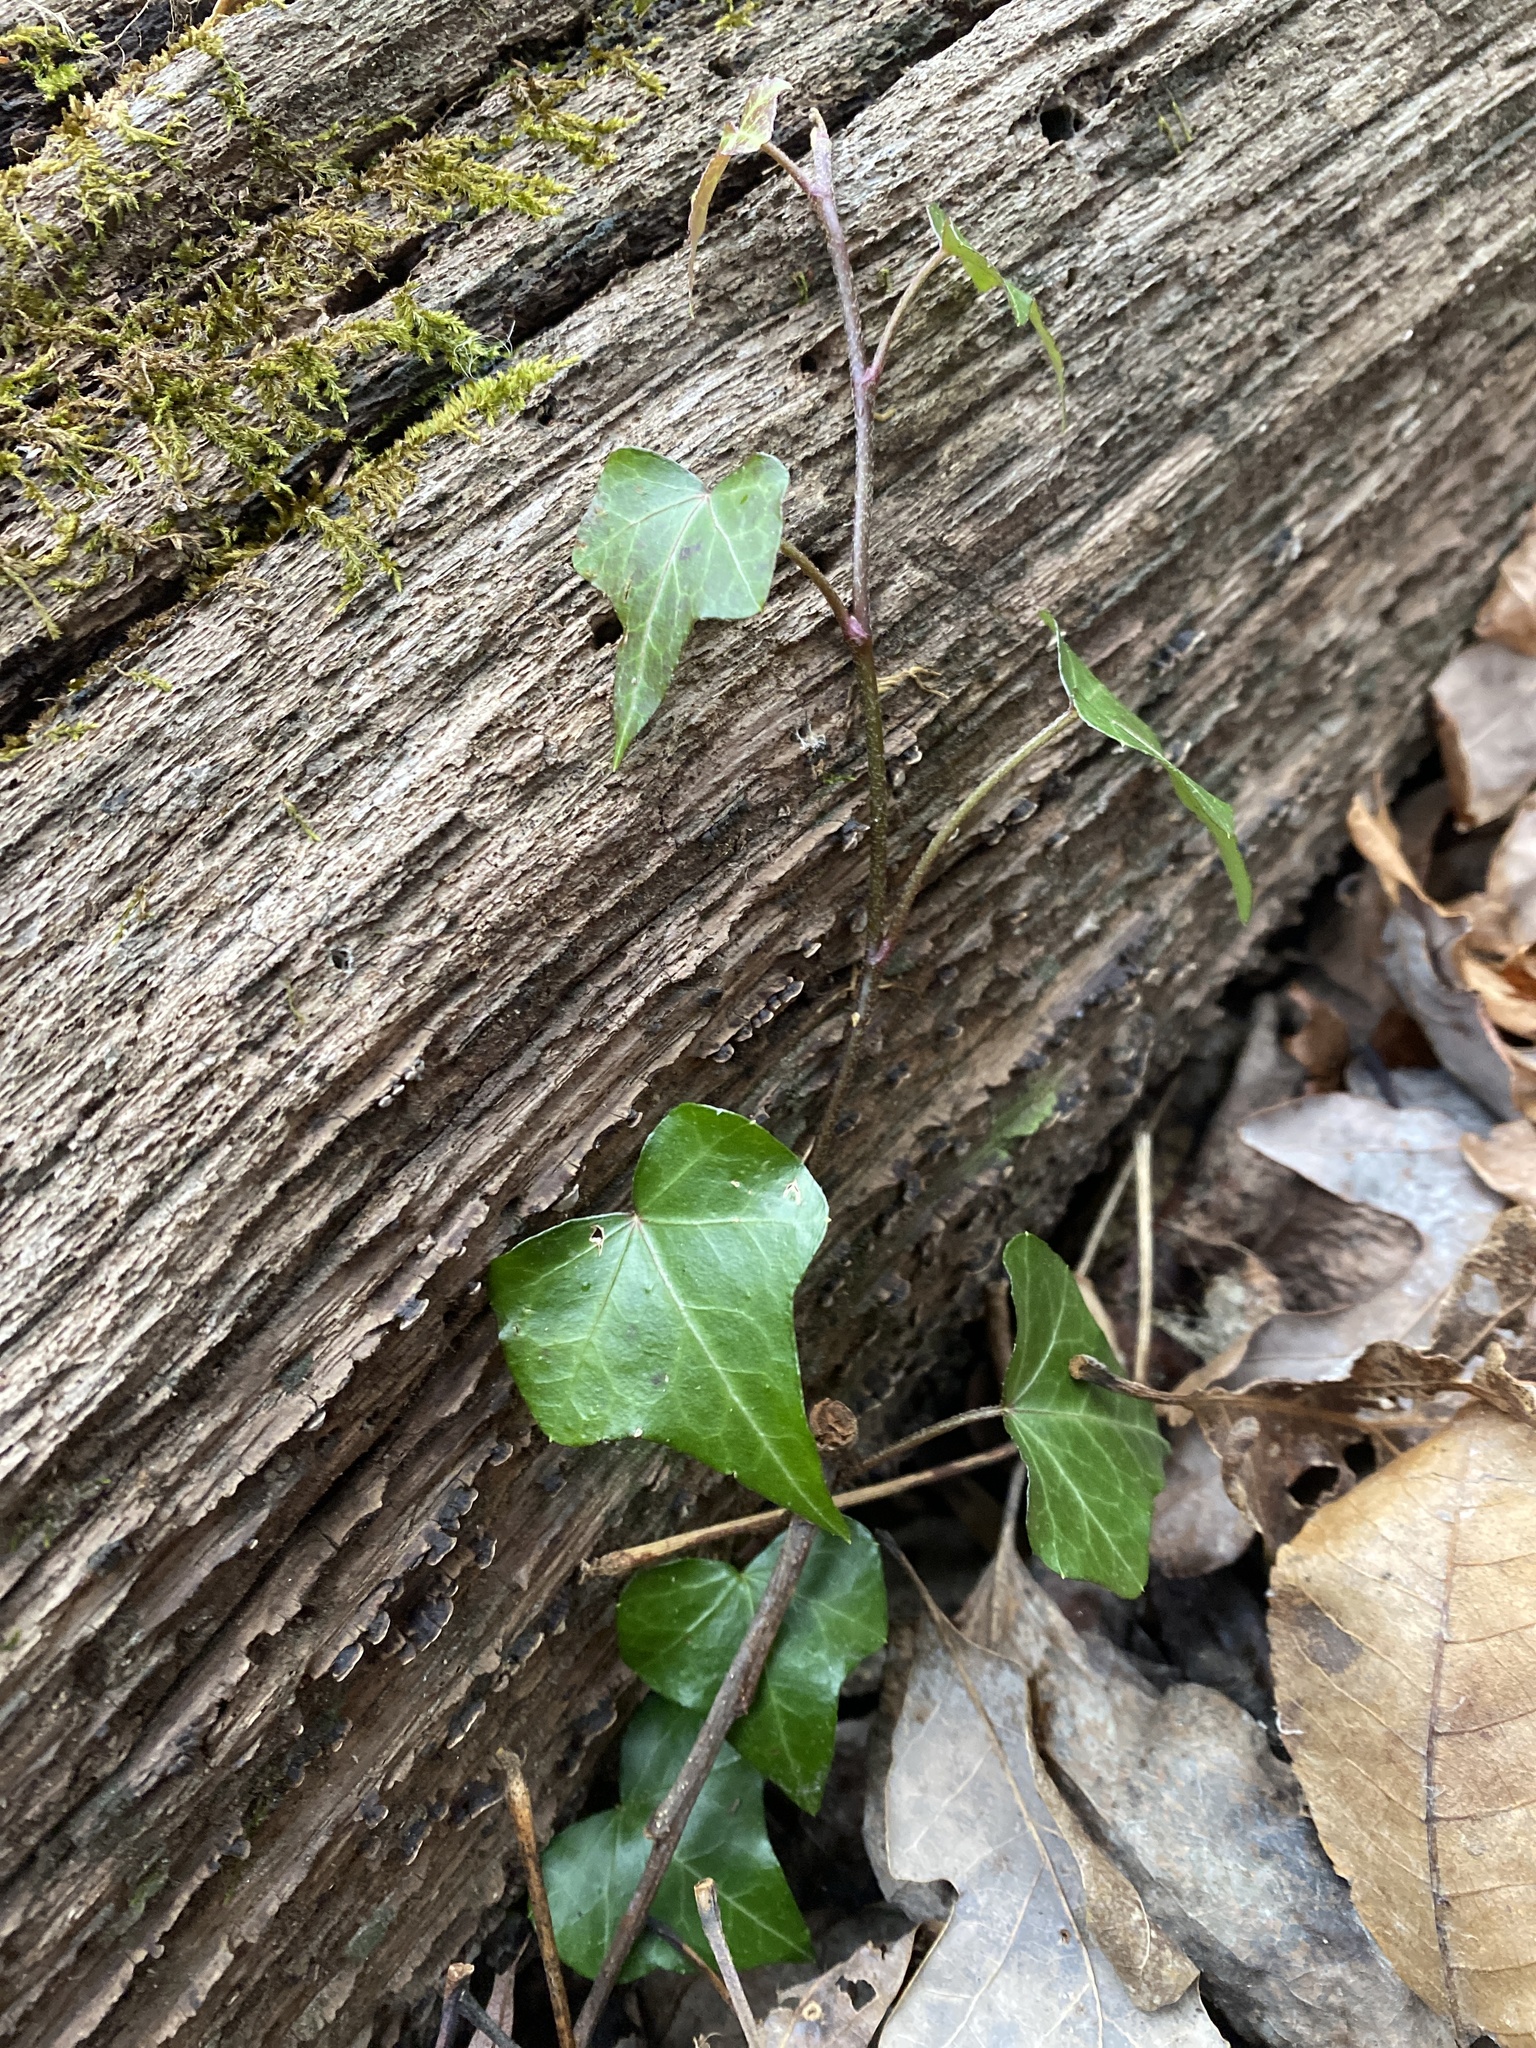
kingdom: Plantae
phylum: Tracheophyta
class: Magnoliopsida
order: Apiales
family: Araliaceae
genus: Hedera
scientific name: Hedera helix
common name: Ivy
